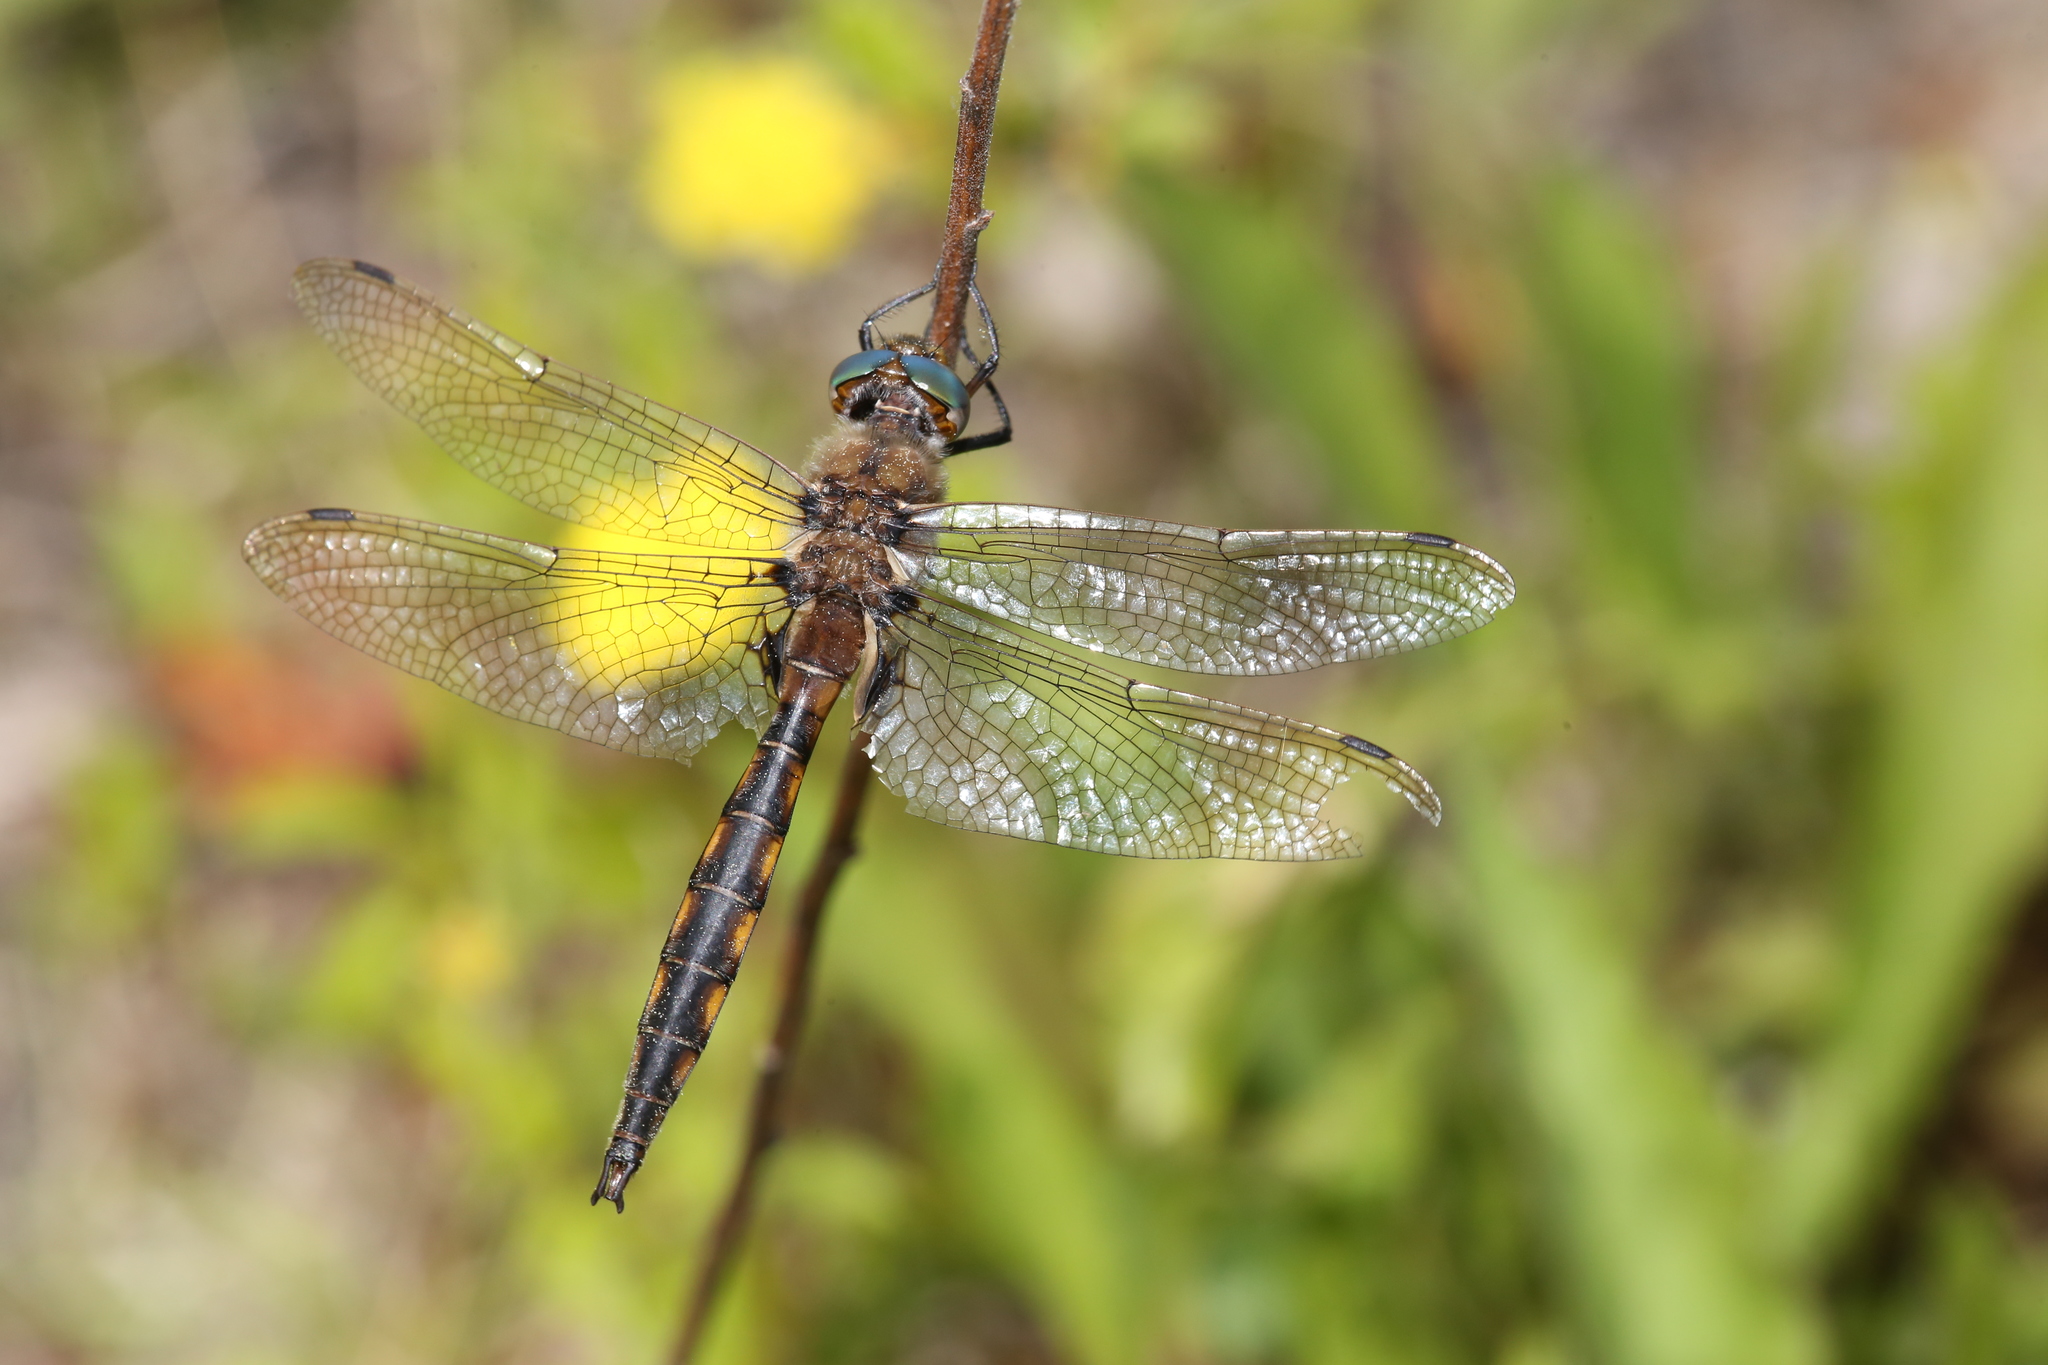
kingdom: Animalia
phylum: Arthropoda
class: Insecta
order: Odonata
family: Corduliidae
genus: Epitheca
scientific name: Epitheca canis
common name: Beaverpond baskettail
